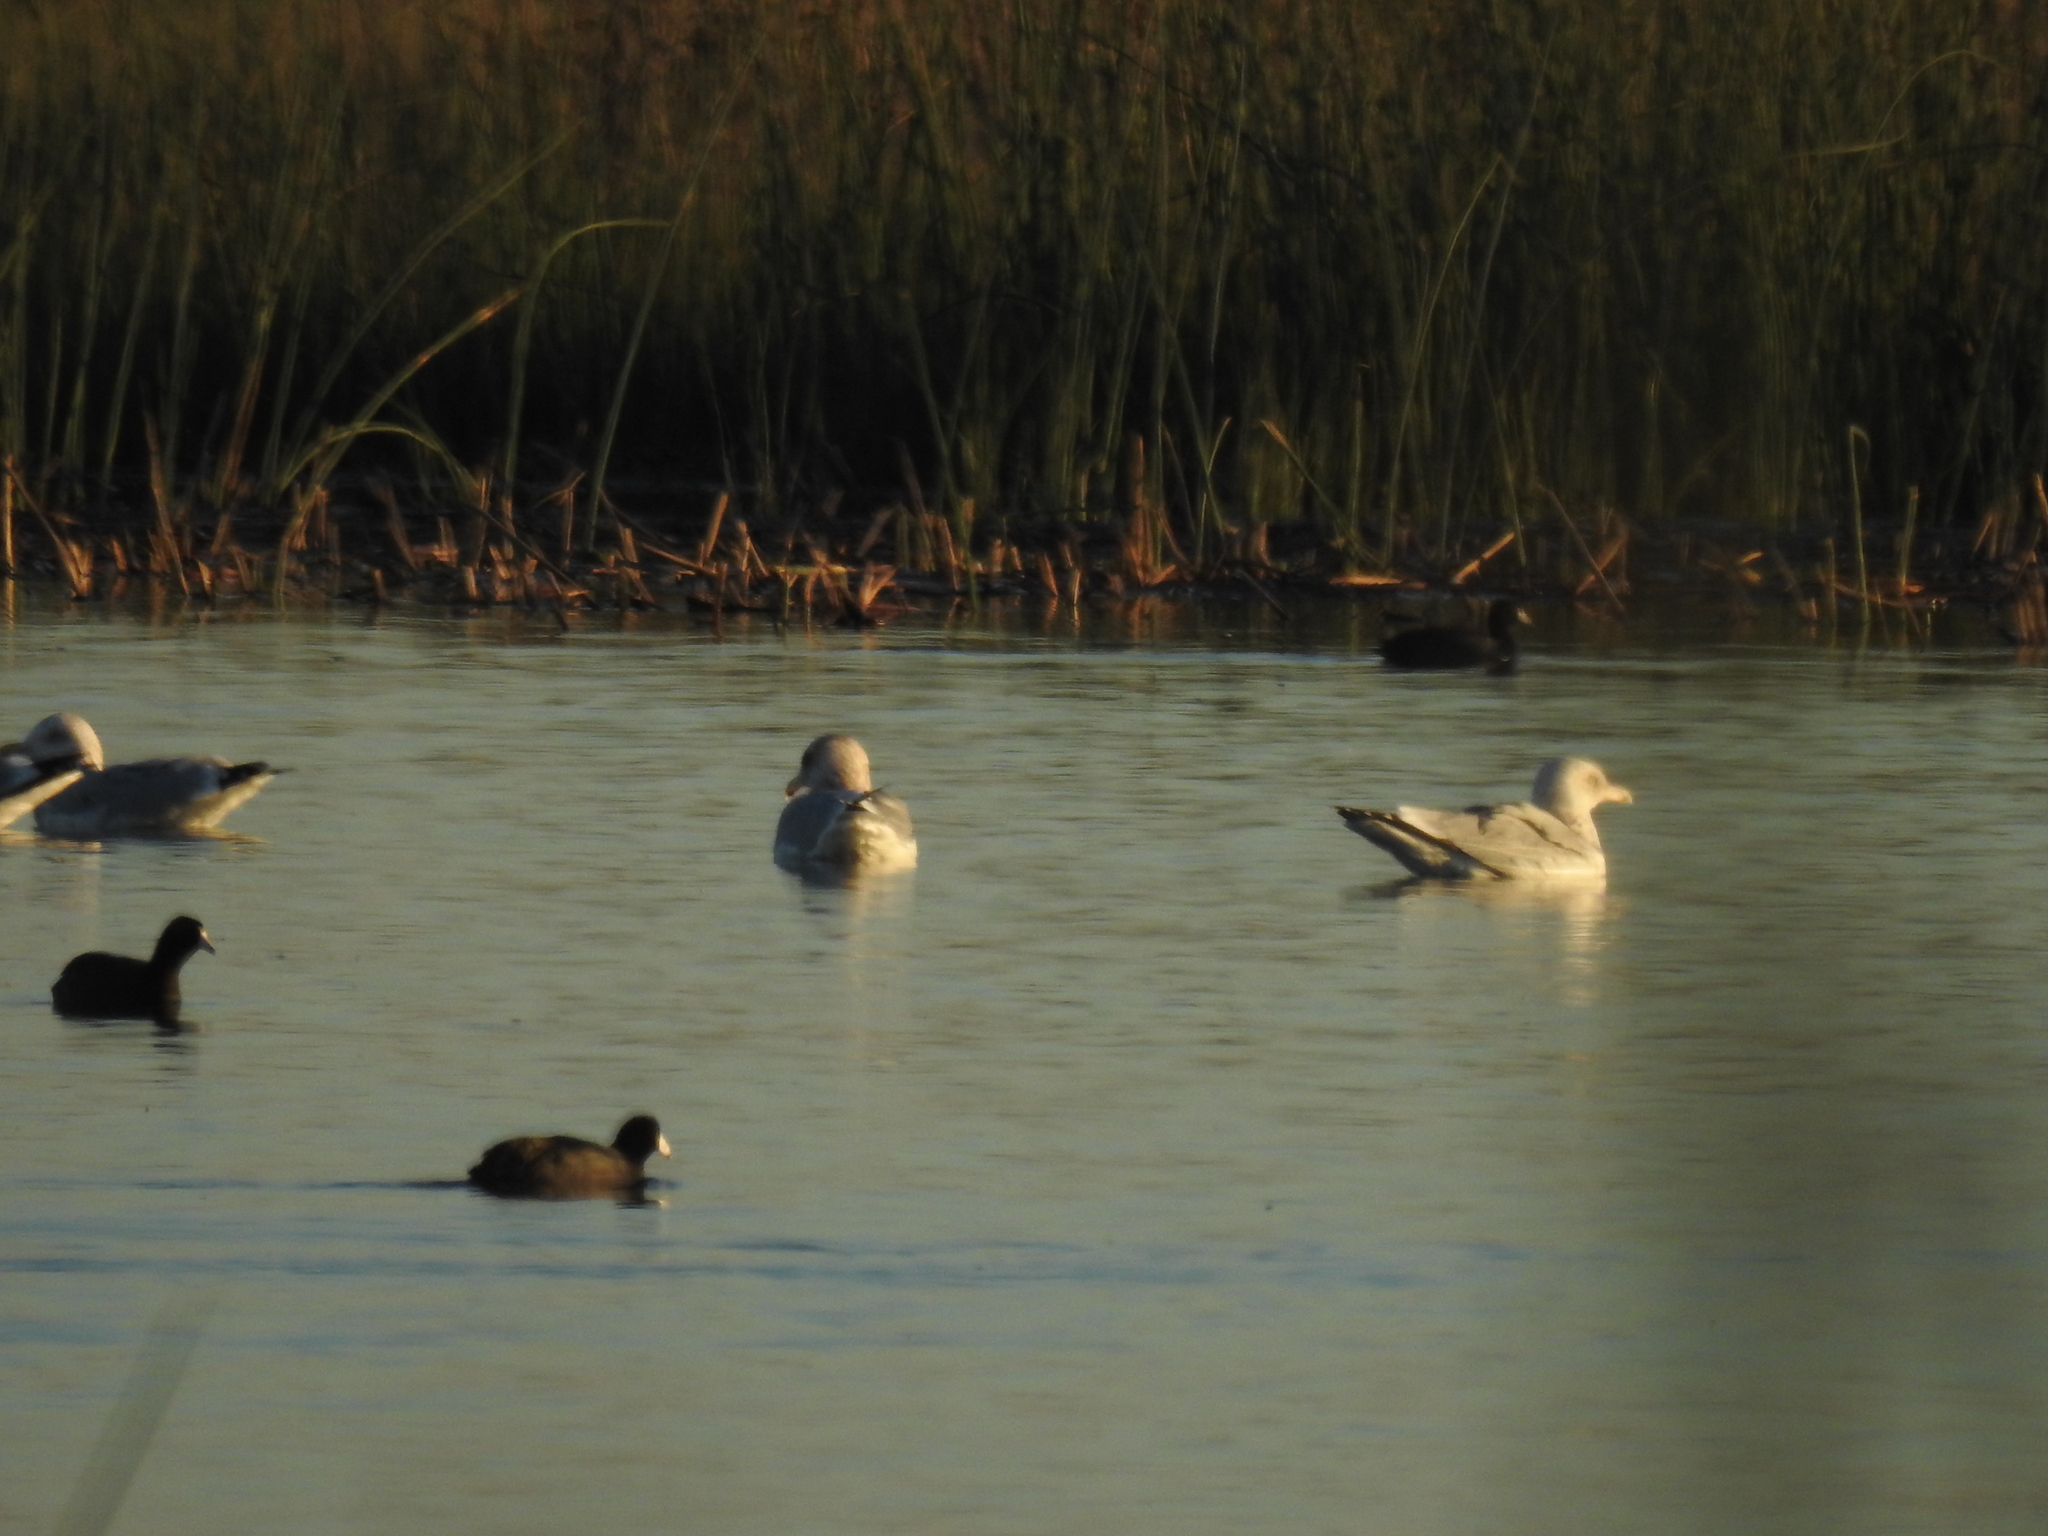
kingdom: Animalia
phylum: Chordata
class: Aves
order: Charadriiformes
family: Laridae
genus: Larus
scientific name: Larus argentatus
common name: Herring gull
